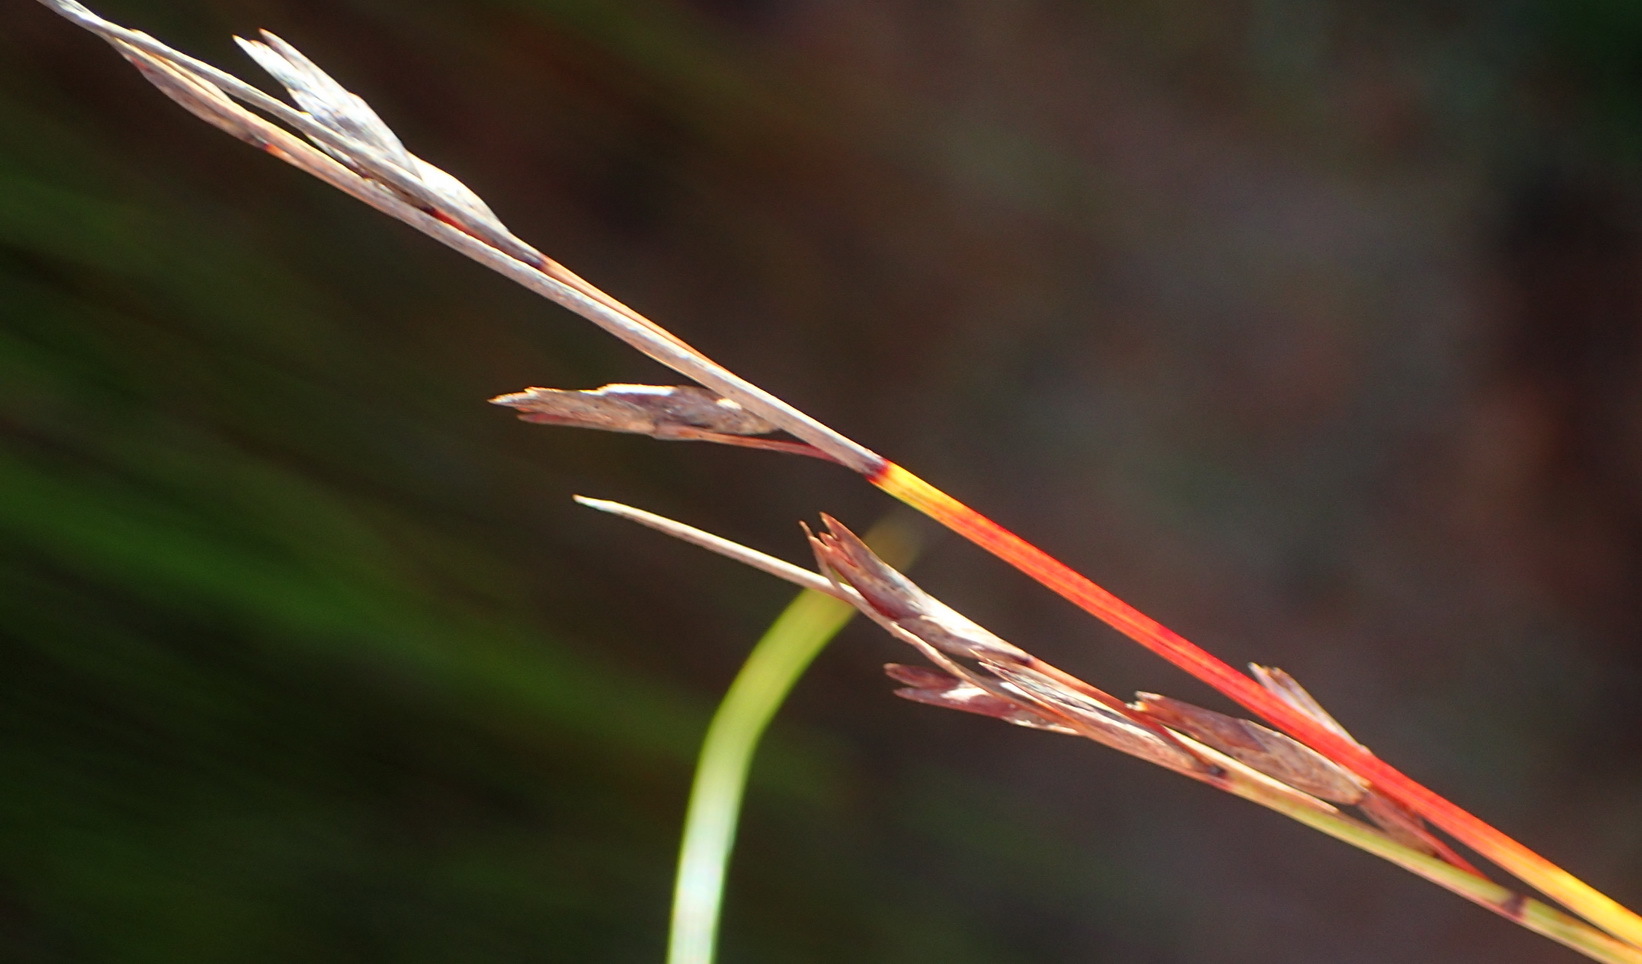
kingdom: Plantae
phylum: Tracheophyta
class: Liliopsida
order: Poales
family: Cyperaceae
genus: Schoenus
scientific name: Schoenus gracillimus
